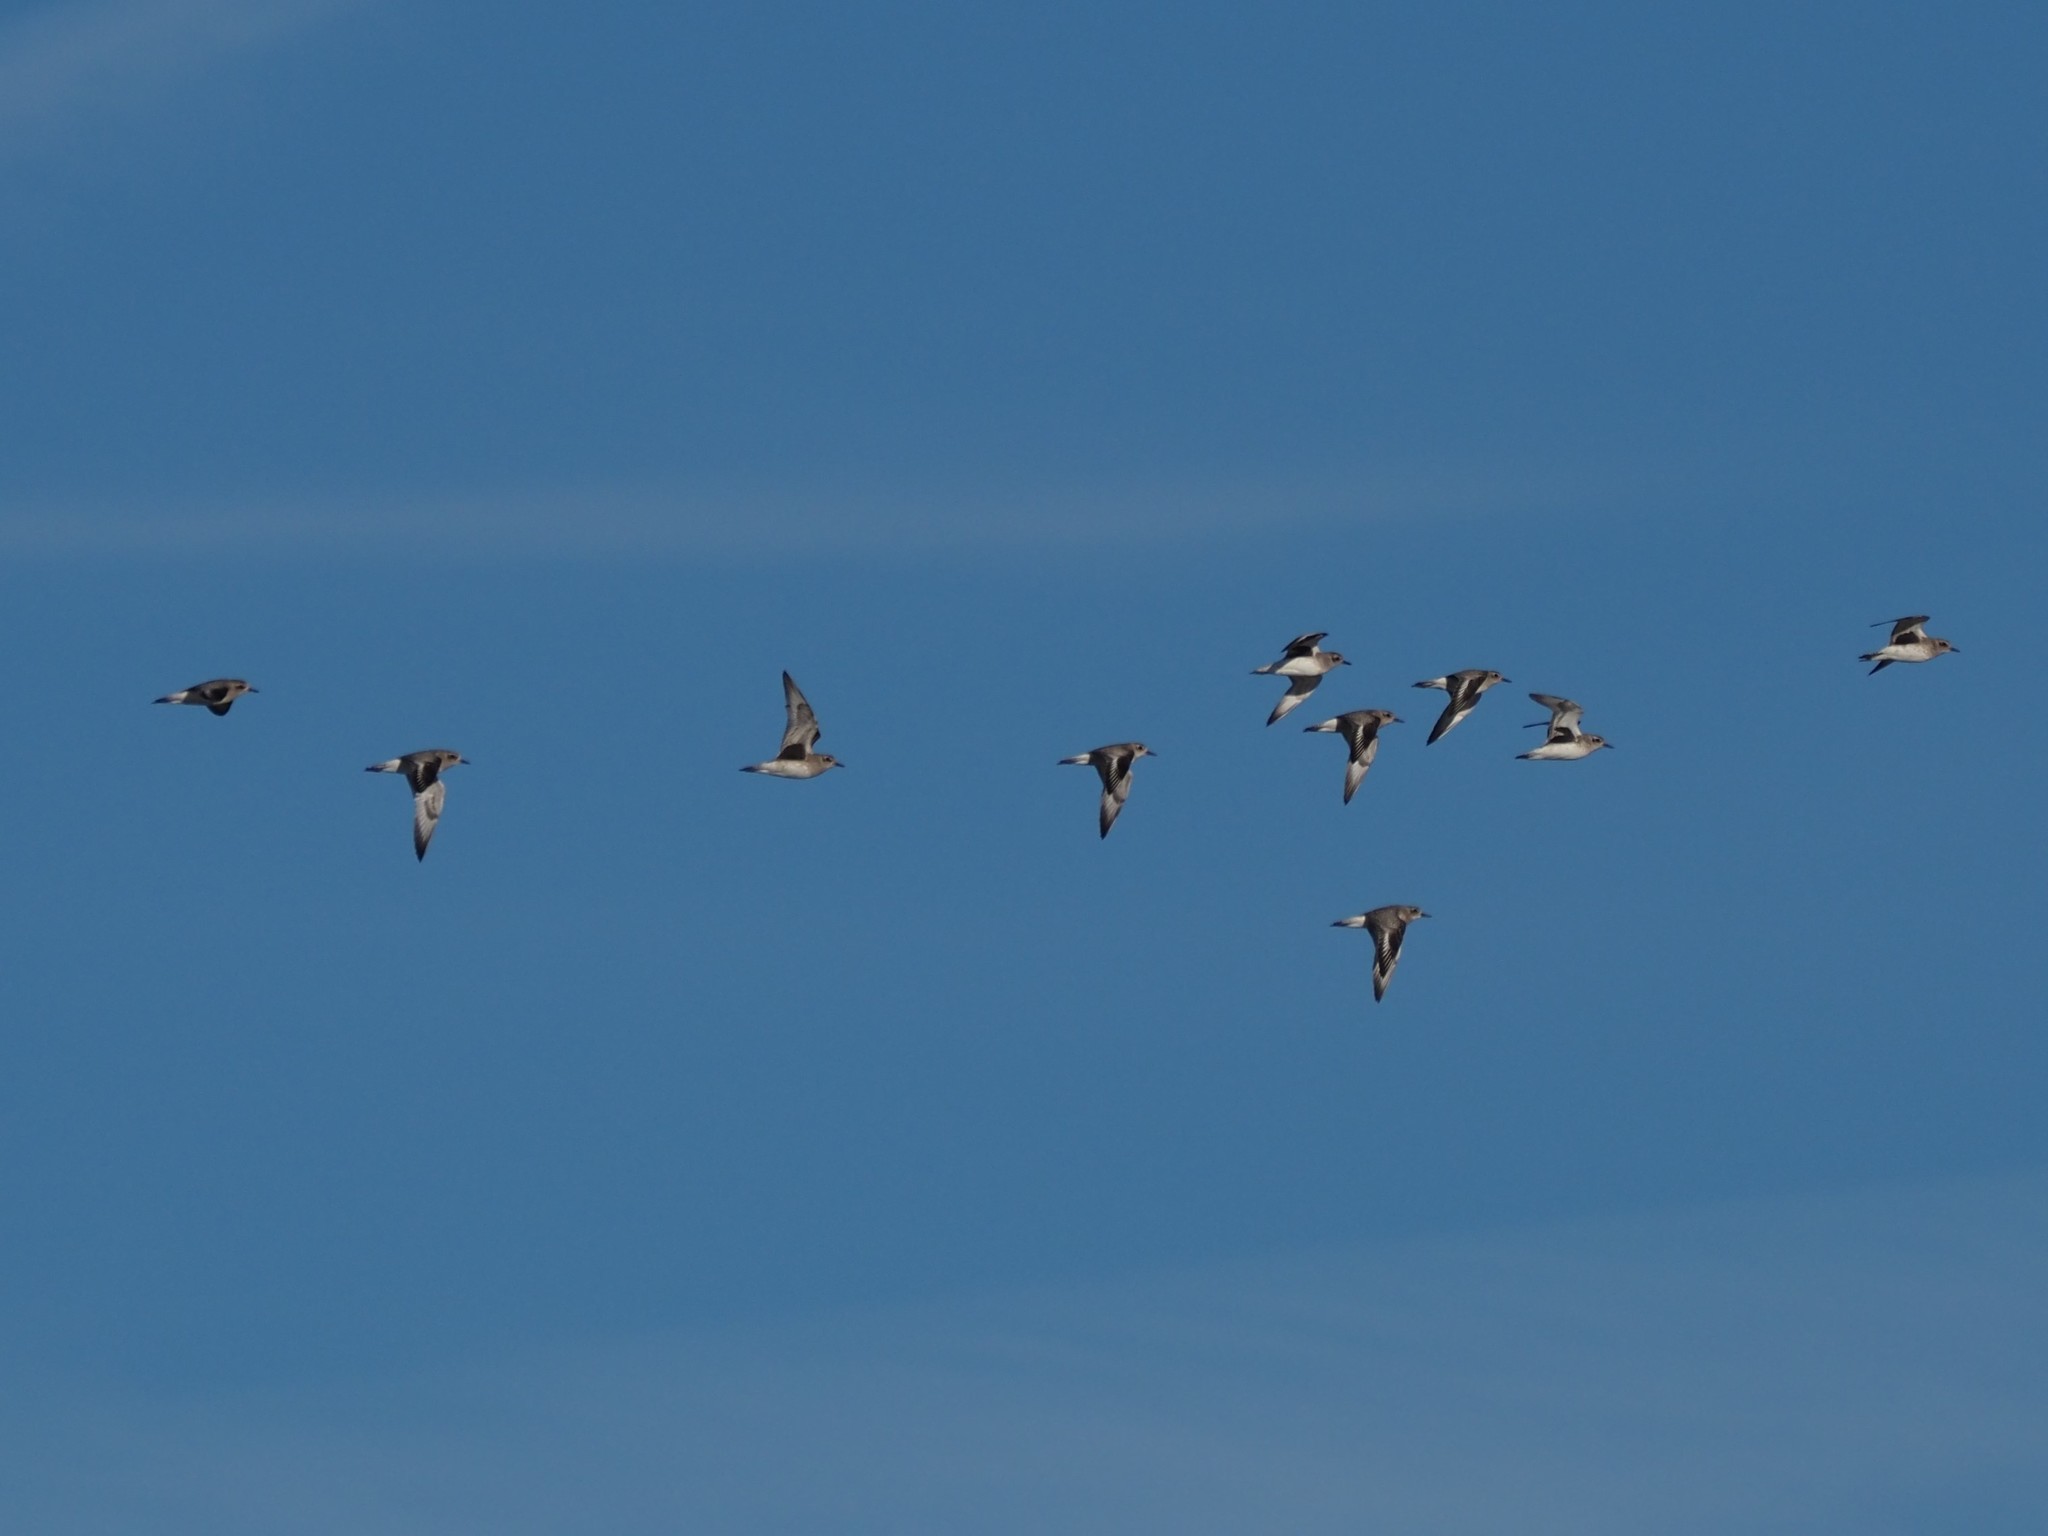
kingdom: Animalia
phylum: Chordata
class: Aves
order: Charadriiformes
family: Charadriidae
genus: Pluvialis
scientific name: Pluvialis squatarola
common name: Grey plover
